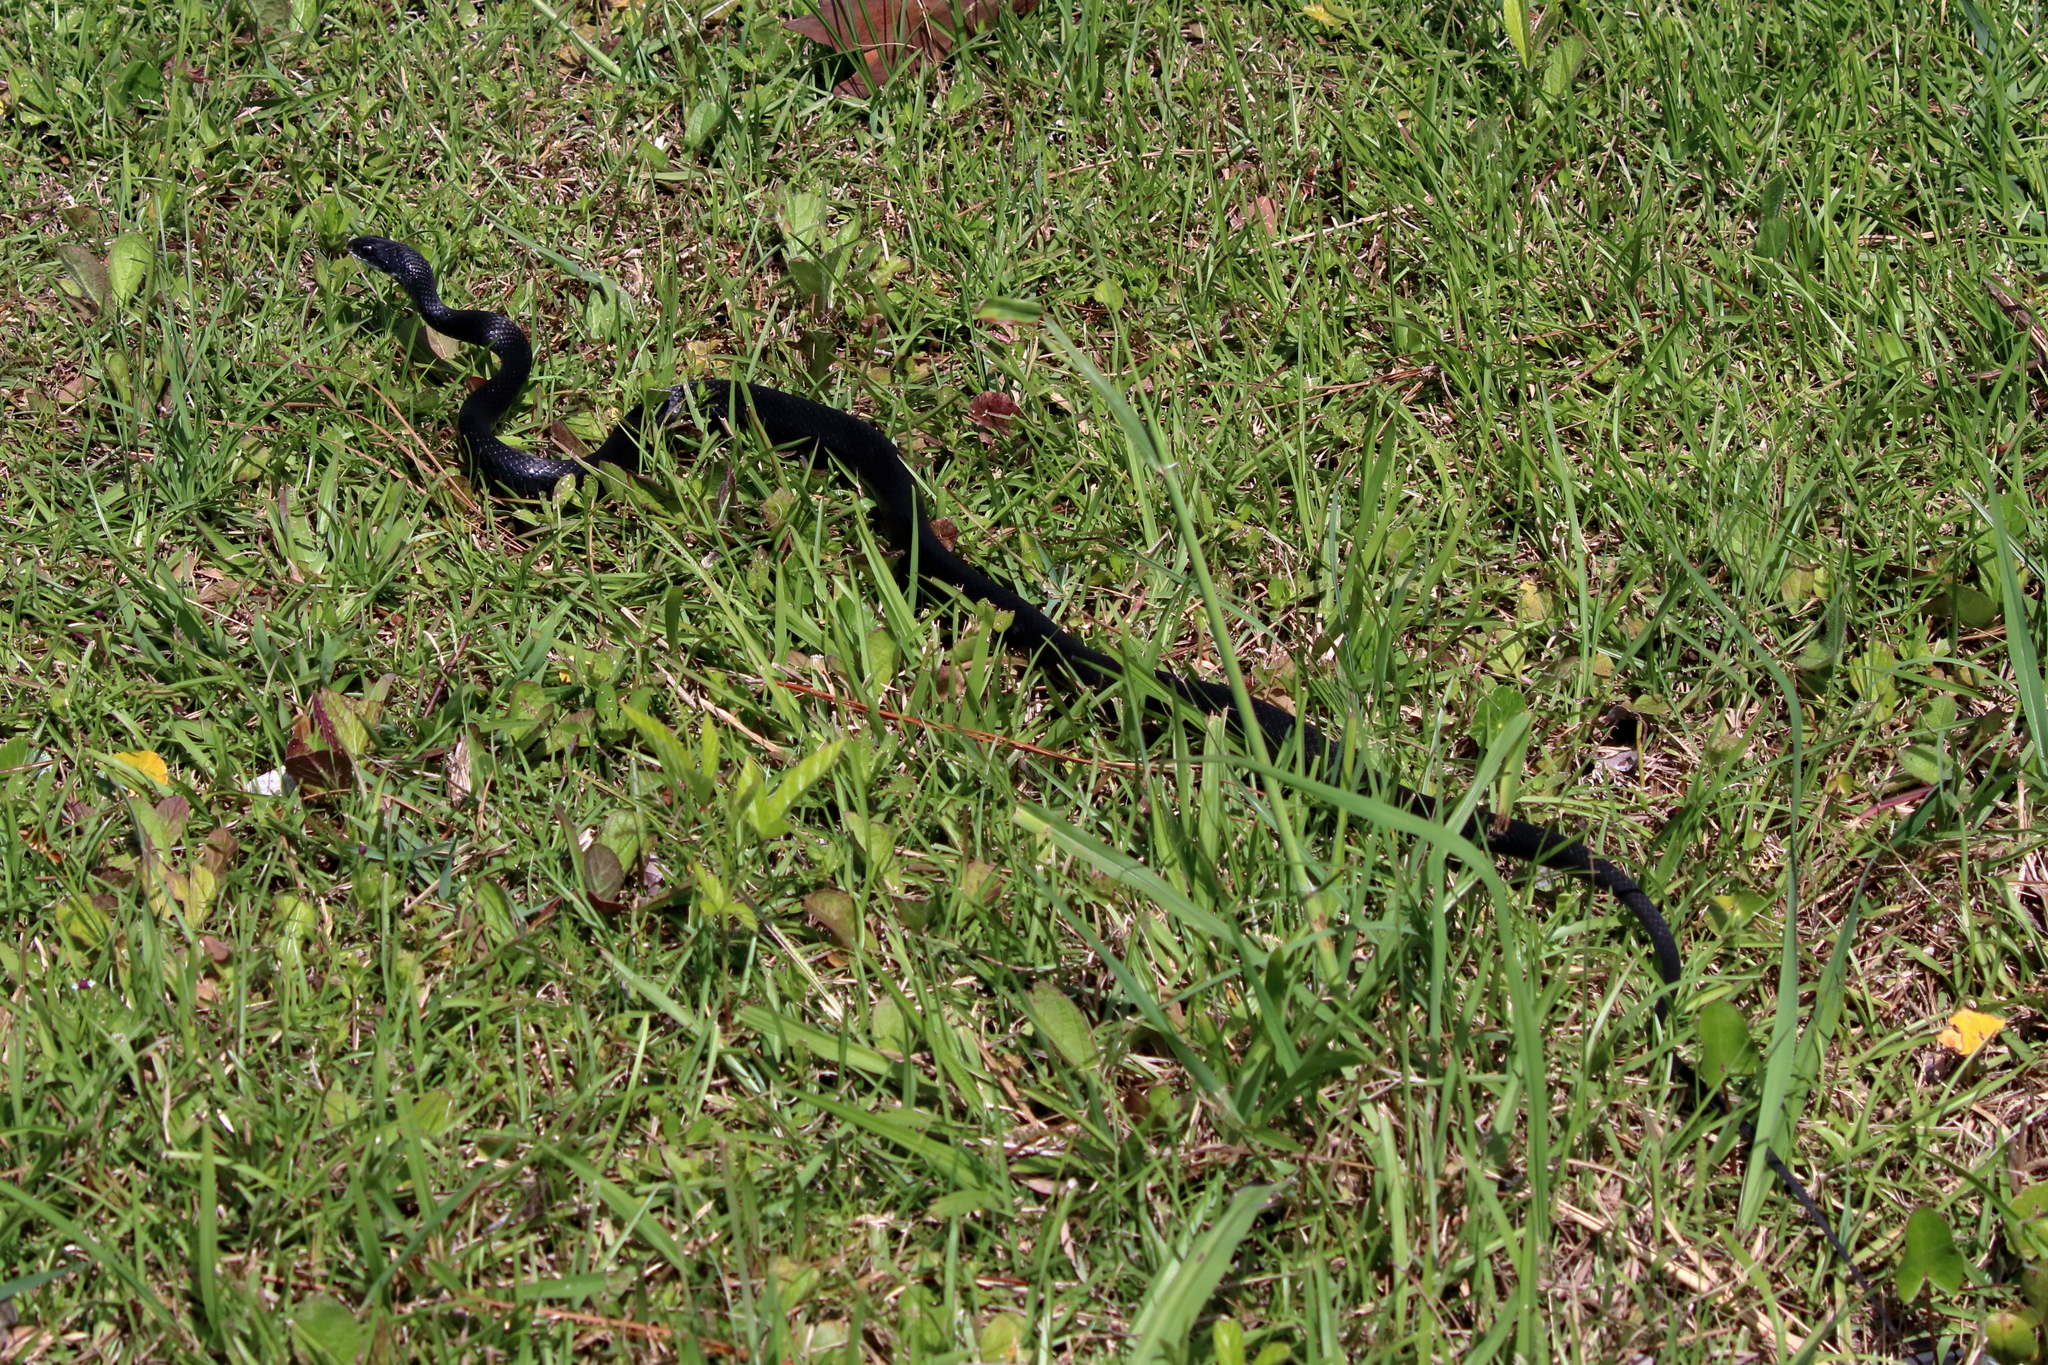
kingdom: Animalia
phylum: Chordata
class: Squamata
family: Colubridae
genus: Coluber
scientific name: Coluber constrictor
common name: Eastern racer
